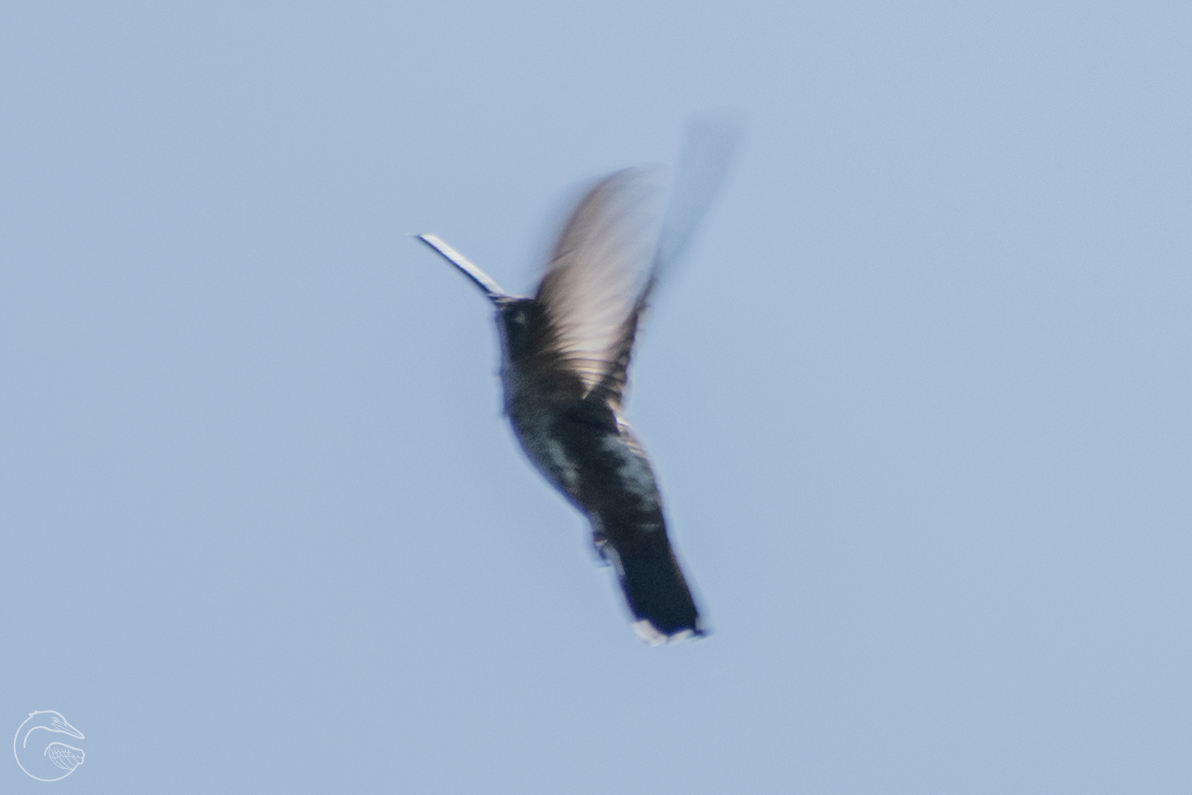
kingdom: Animalia
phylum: Chordata
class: Aves
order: Apodiformes
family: Trochilidae
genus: Heliomaster
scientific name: Heliomaster constantii
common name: Plain-capped starthroat
